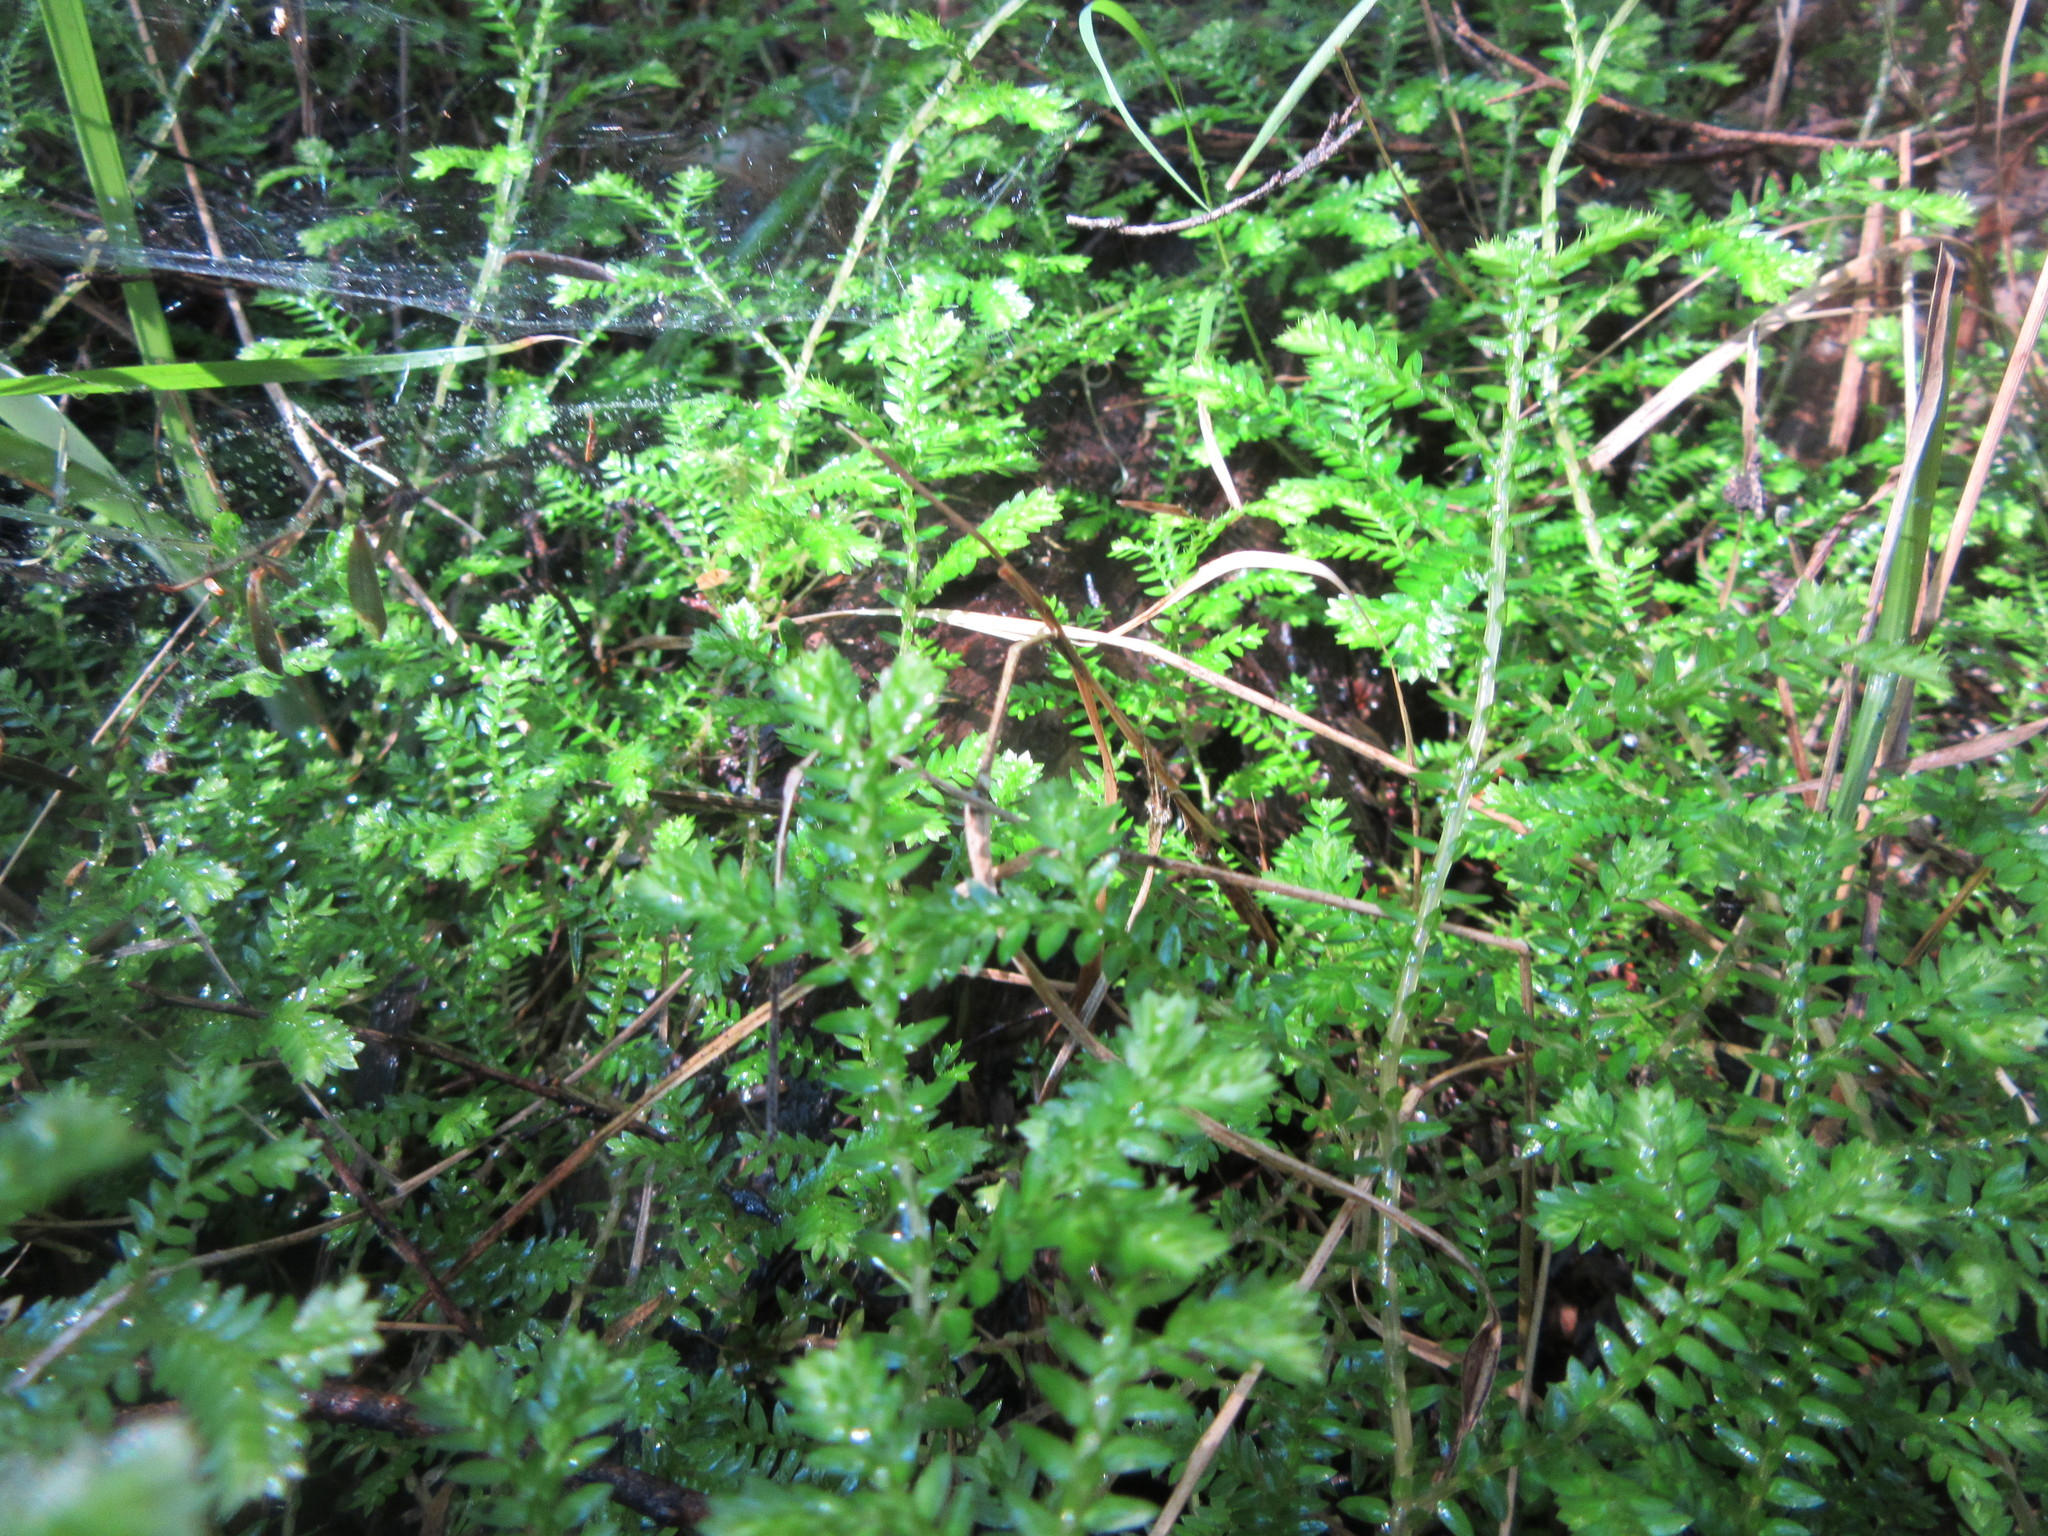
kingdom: Plantae
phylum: Tracheophyta
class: Lycopodiopsida
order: Selaginellales
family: Selaginellaceae
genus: Selaginella
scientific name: Selaginella kraussiana
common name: Krauss' spikemoss
